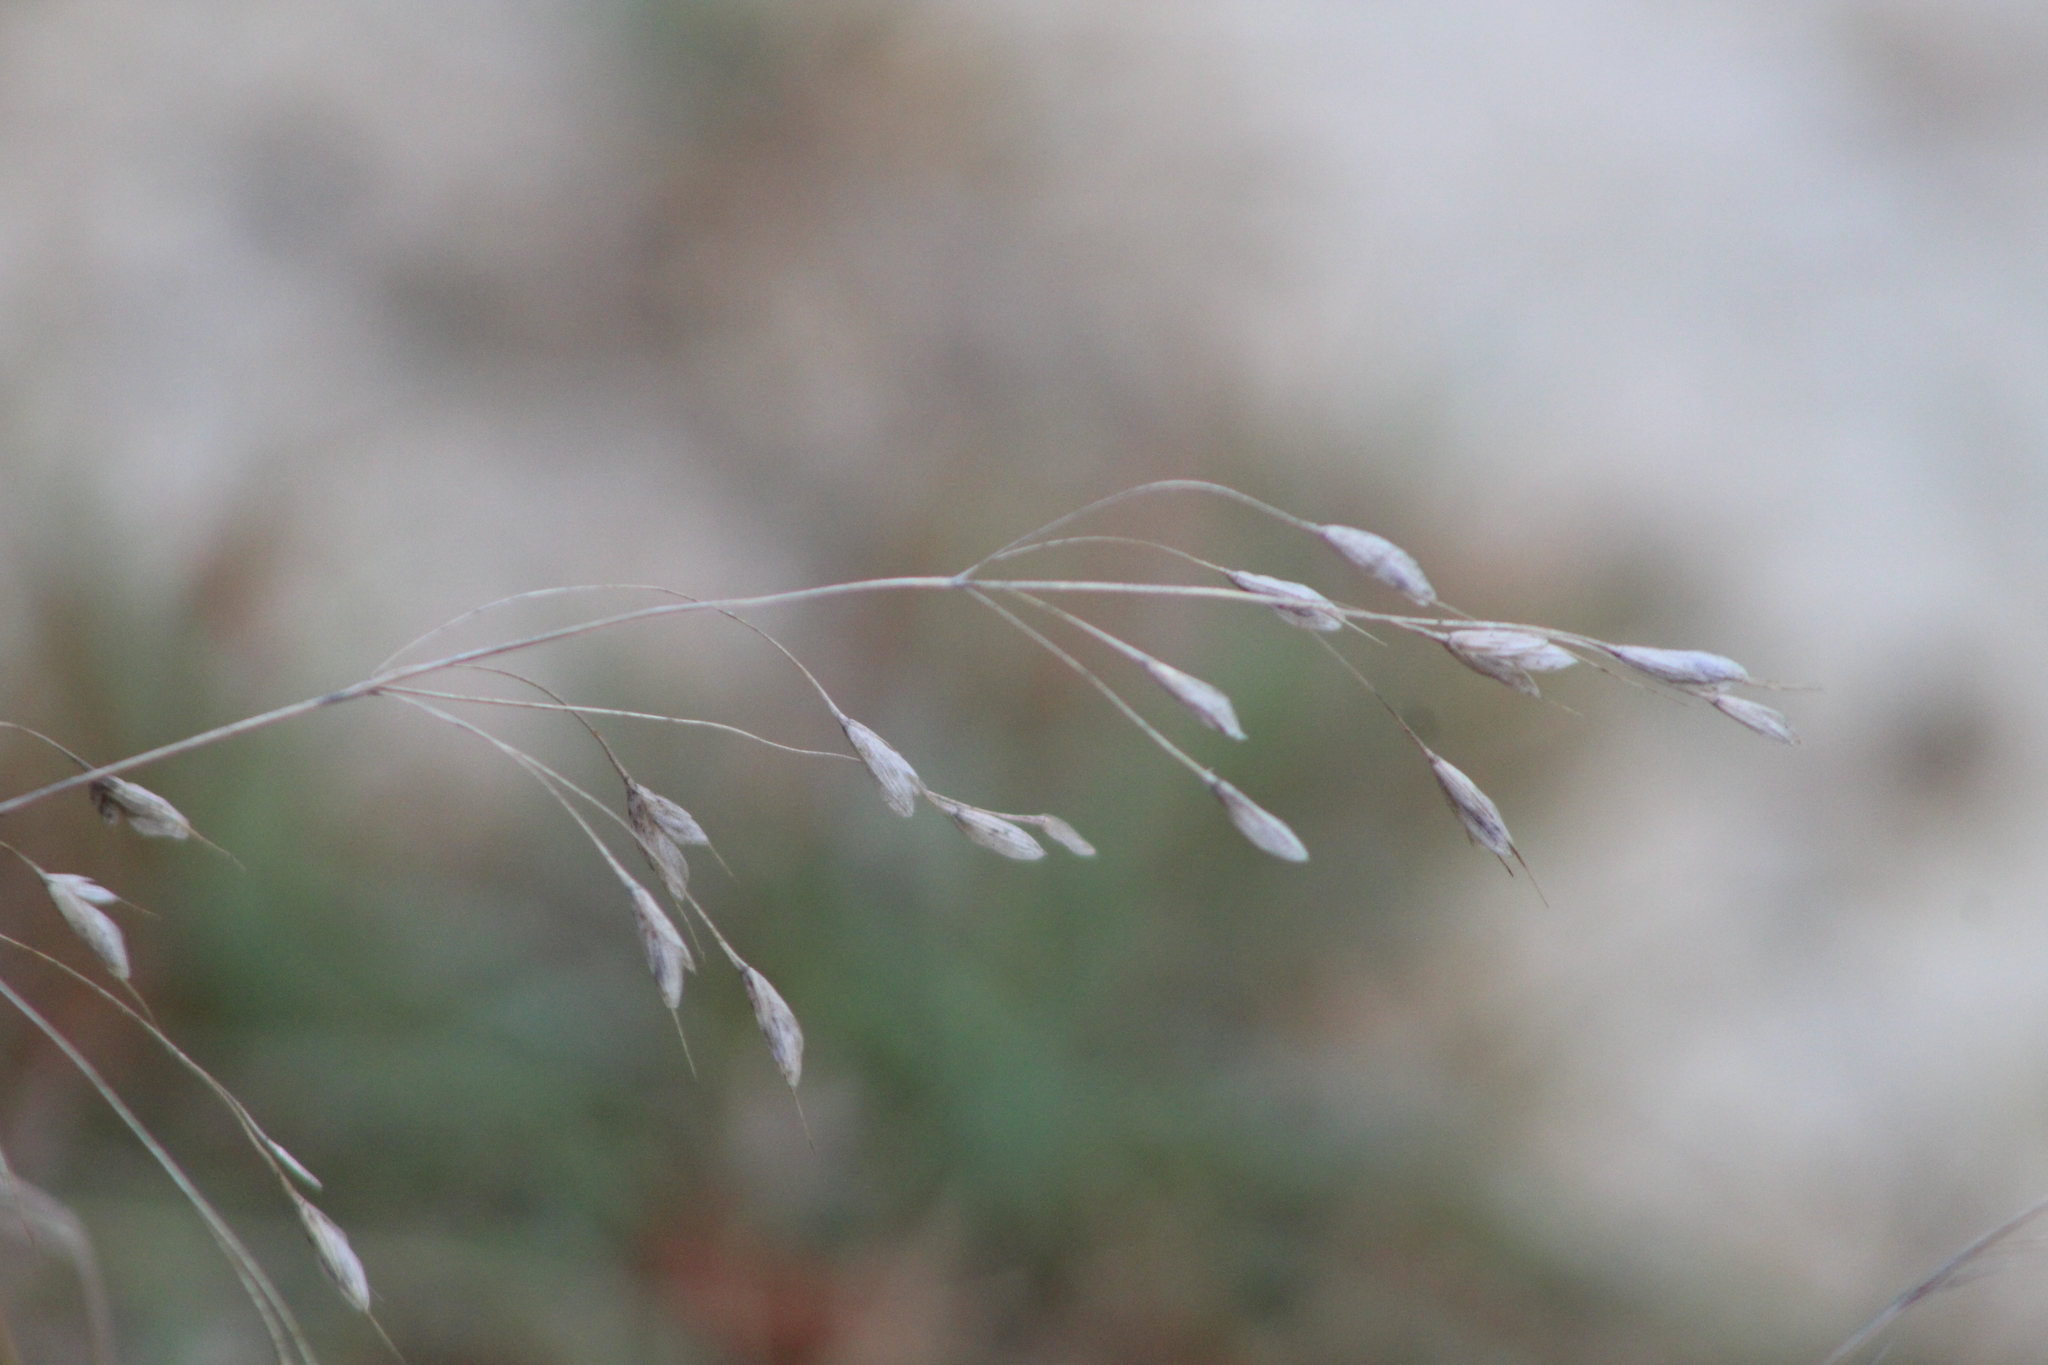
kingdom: Plantae
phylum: Tracheophyta
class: Liliopsida
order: Poales
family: Poaceae
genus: Bromus
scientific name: Bromus japonicus
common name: Japanese brome
